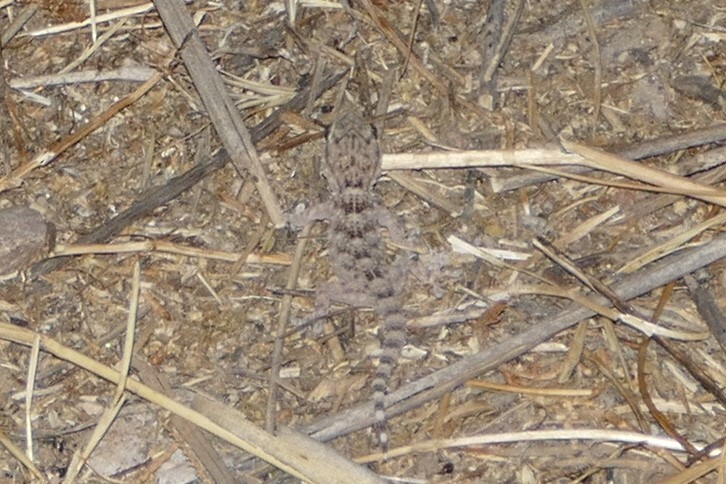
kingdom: Animalia
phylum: Chordata
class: Squamata
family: Phyllodactylidae
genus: Tarentola
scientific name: Tarentola mauritanica
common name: Moorish gecko
